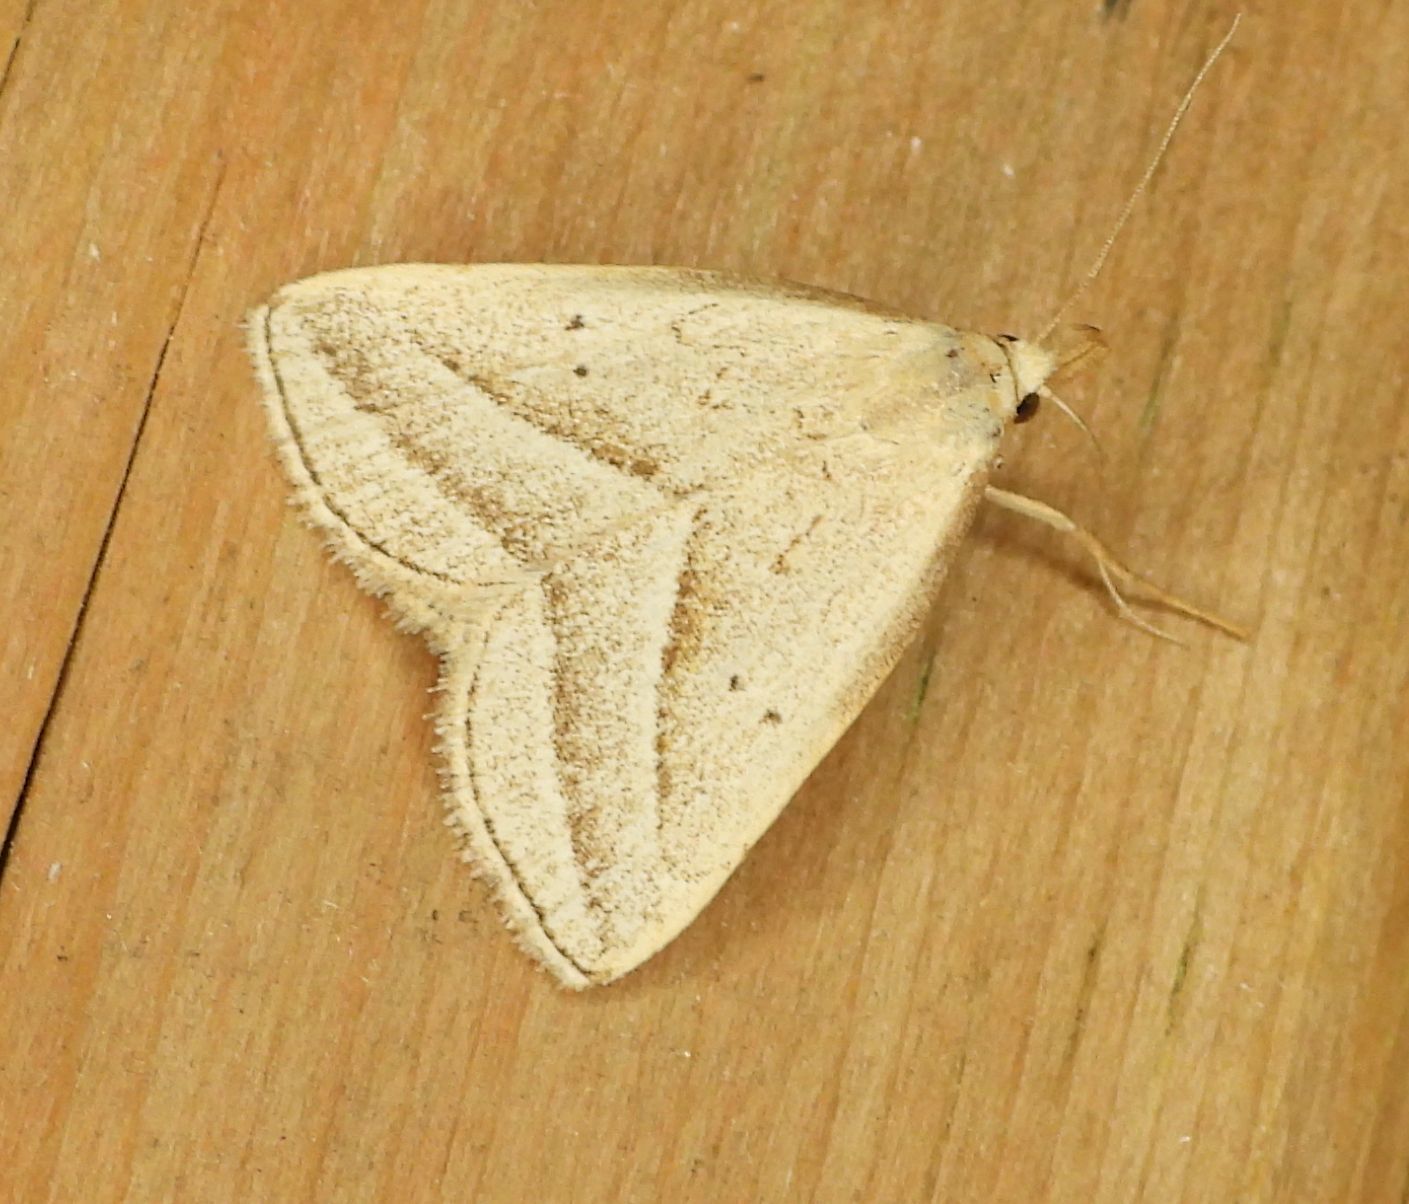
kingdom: Animalia
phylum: Arthropoda
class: Insecta
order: Lepidoptera
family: Erebidae
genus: Macrochilo
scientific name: Macrochilo absorptalis
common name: Slant-lined owlet
